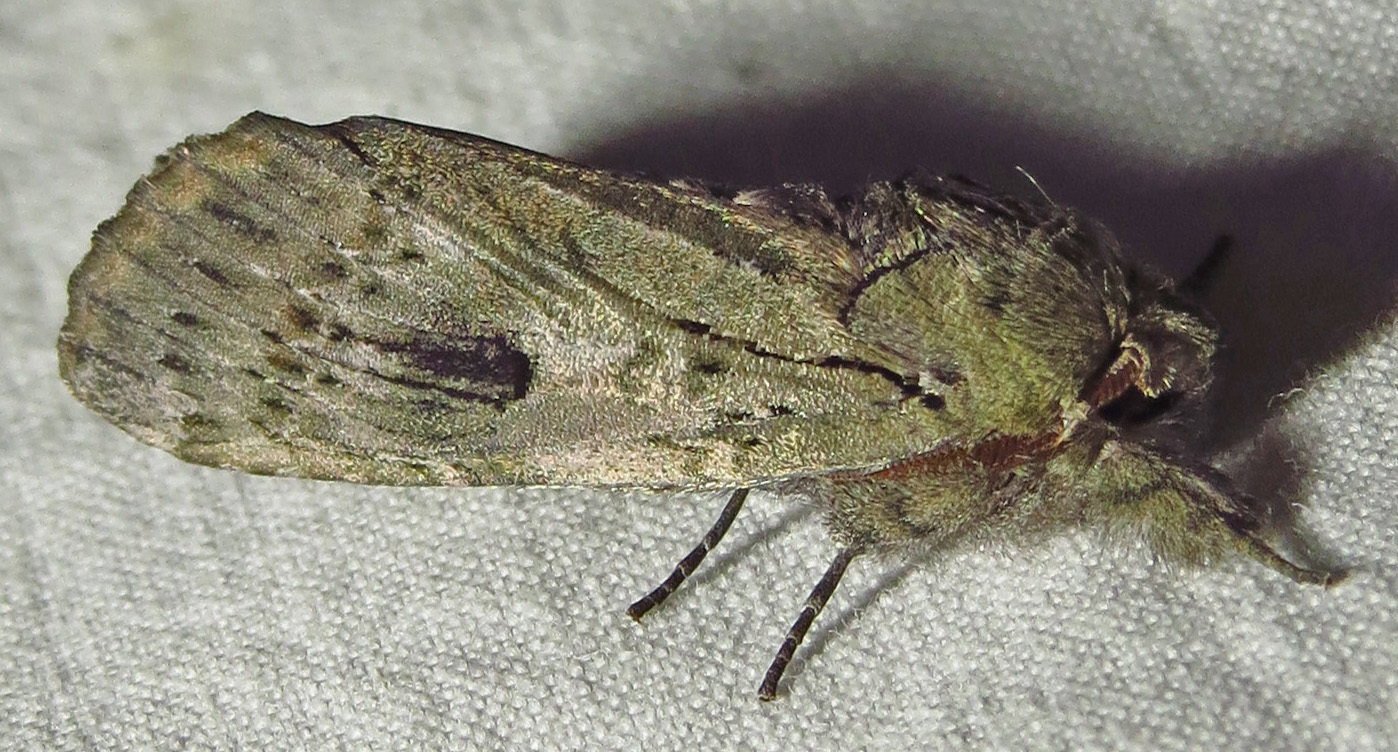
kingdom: Animalia
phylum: Arthropoda
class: Insecta
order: Lepidoptera
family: Notodontidae
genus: Schizura
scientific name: Schizura
